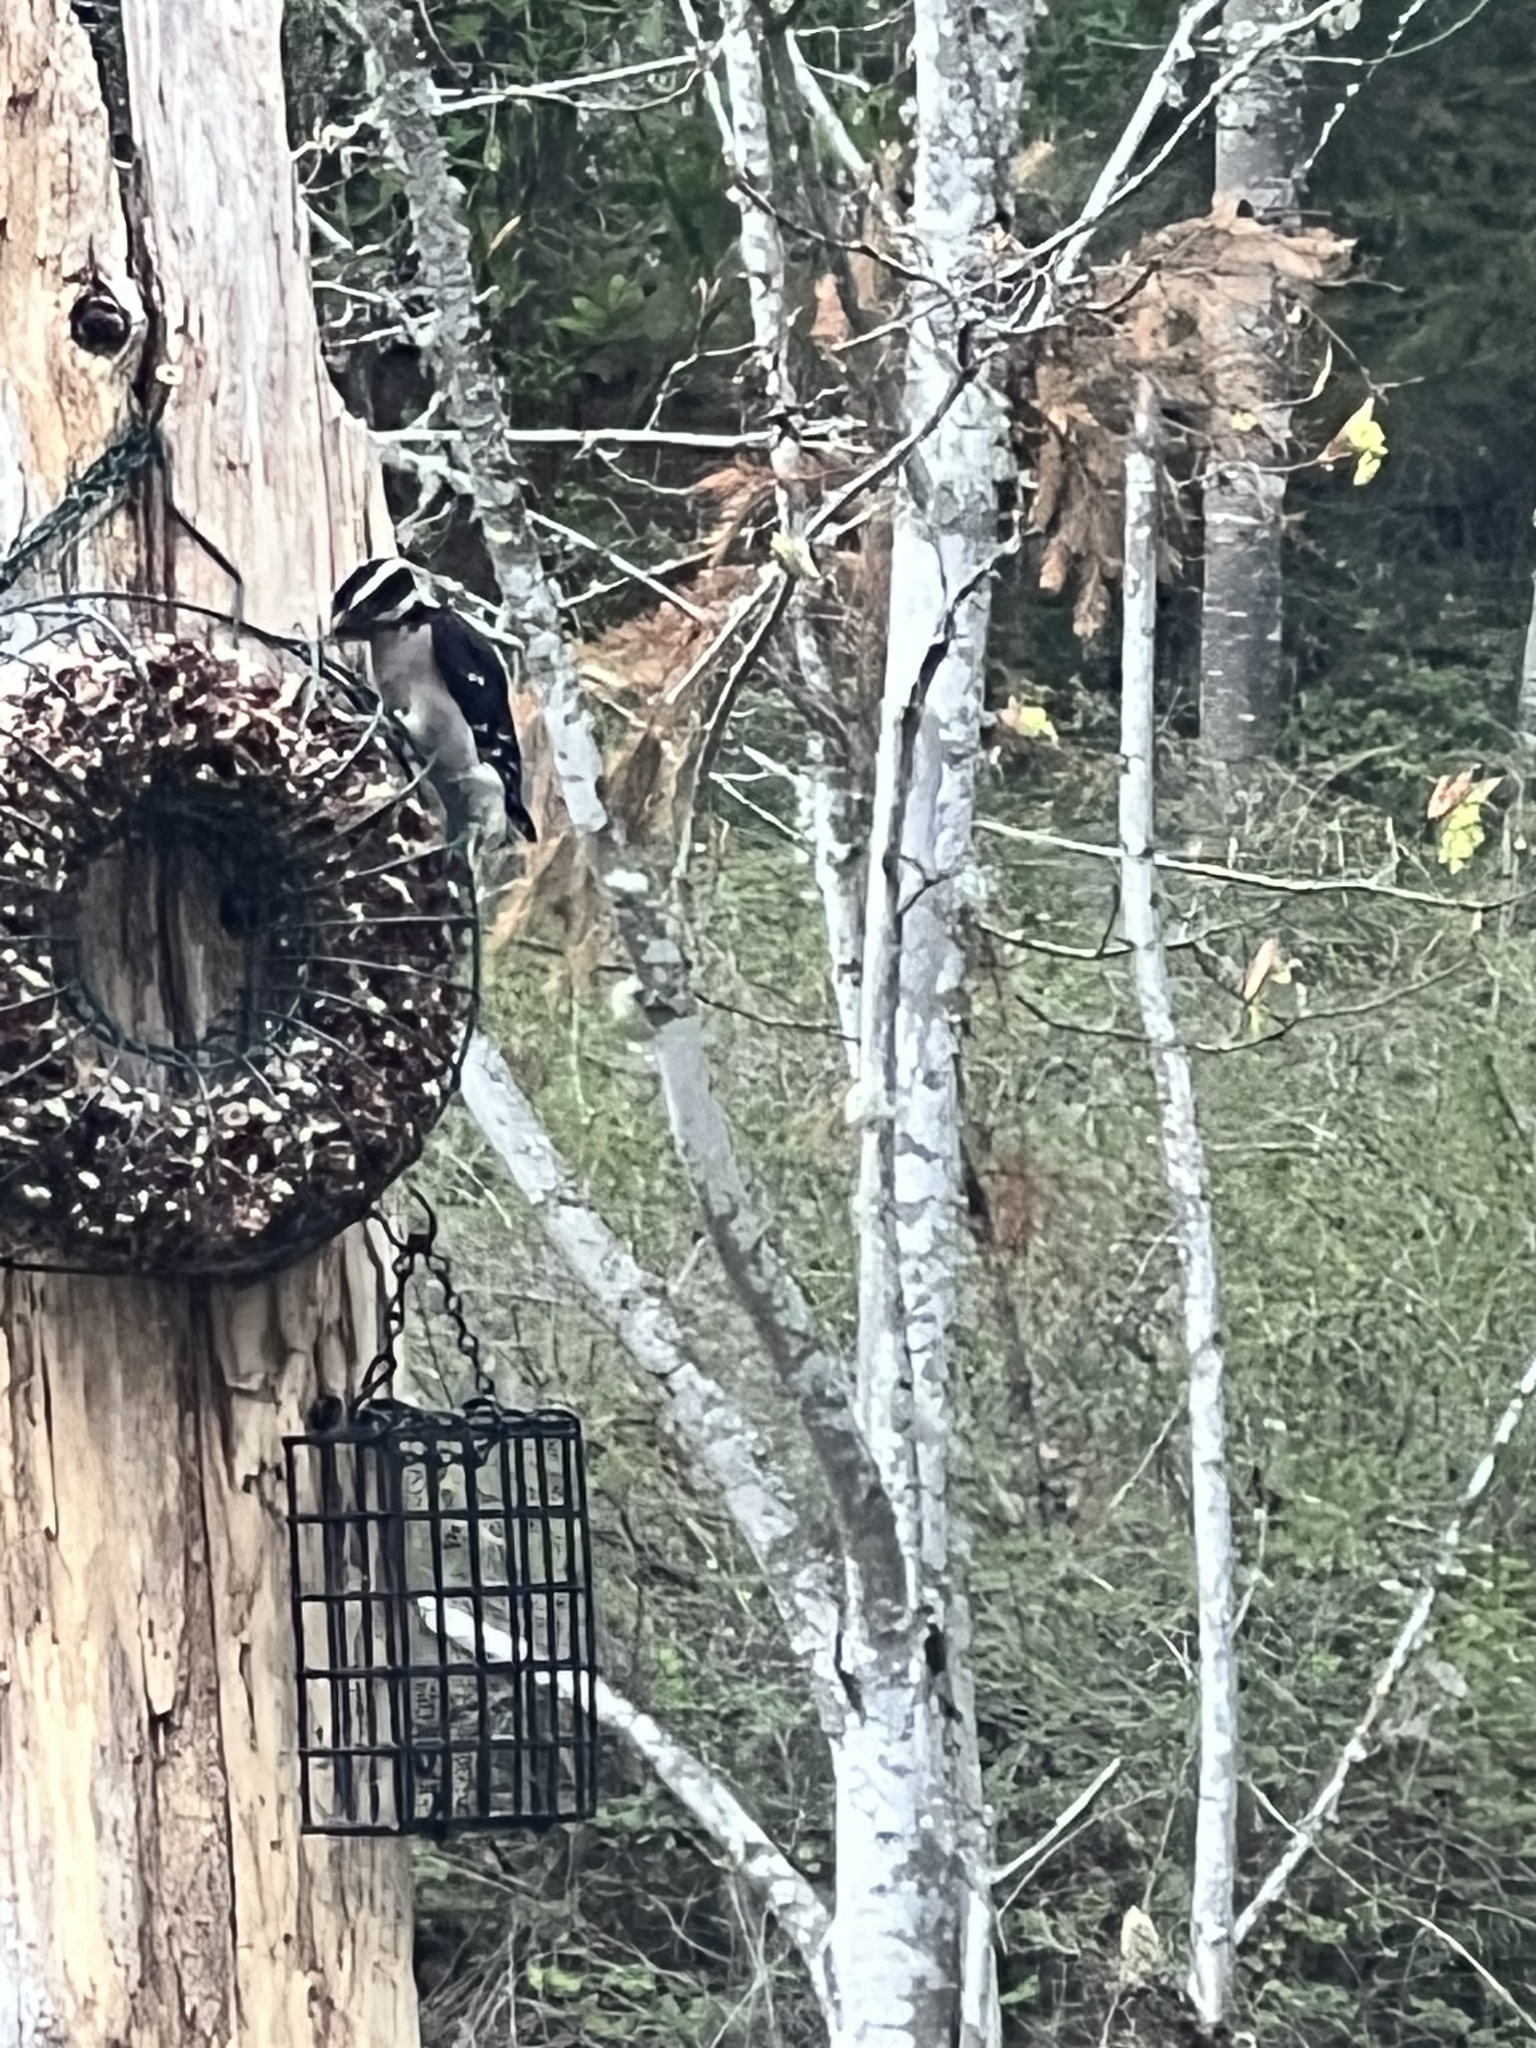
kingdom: Animalia
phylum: Chordata
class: Aves
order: Piciformes
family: Picidae
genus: Dryobates
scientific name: Dryobates pubescens
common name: Downy woodpecker
